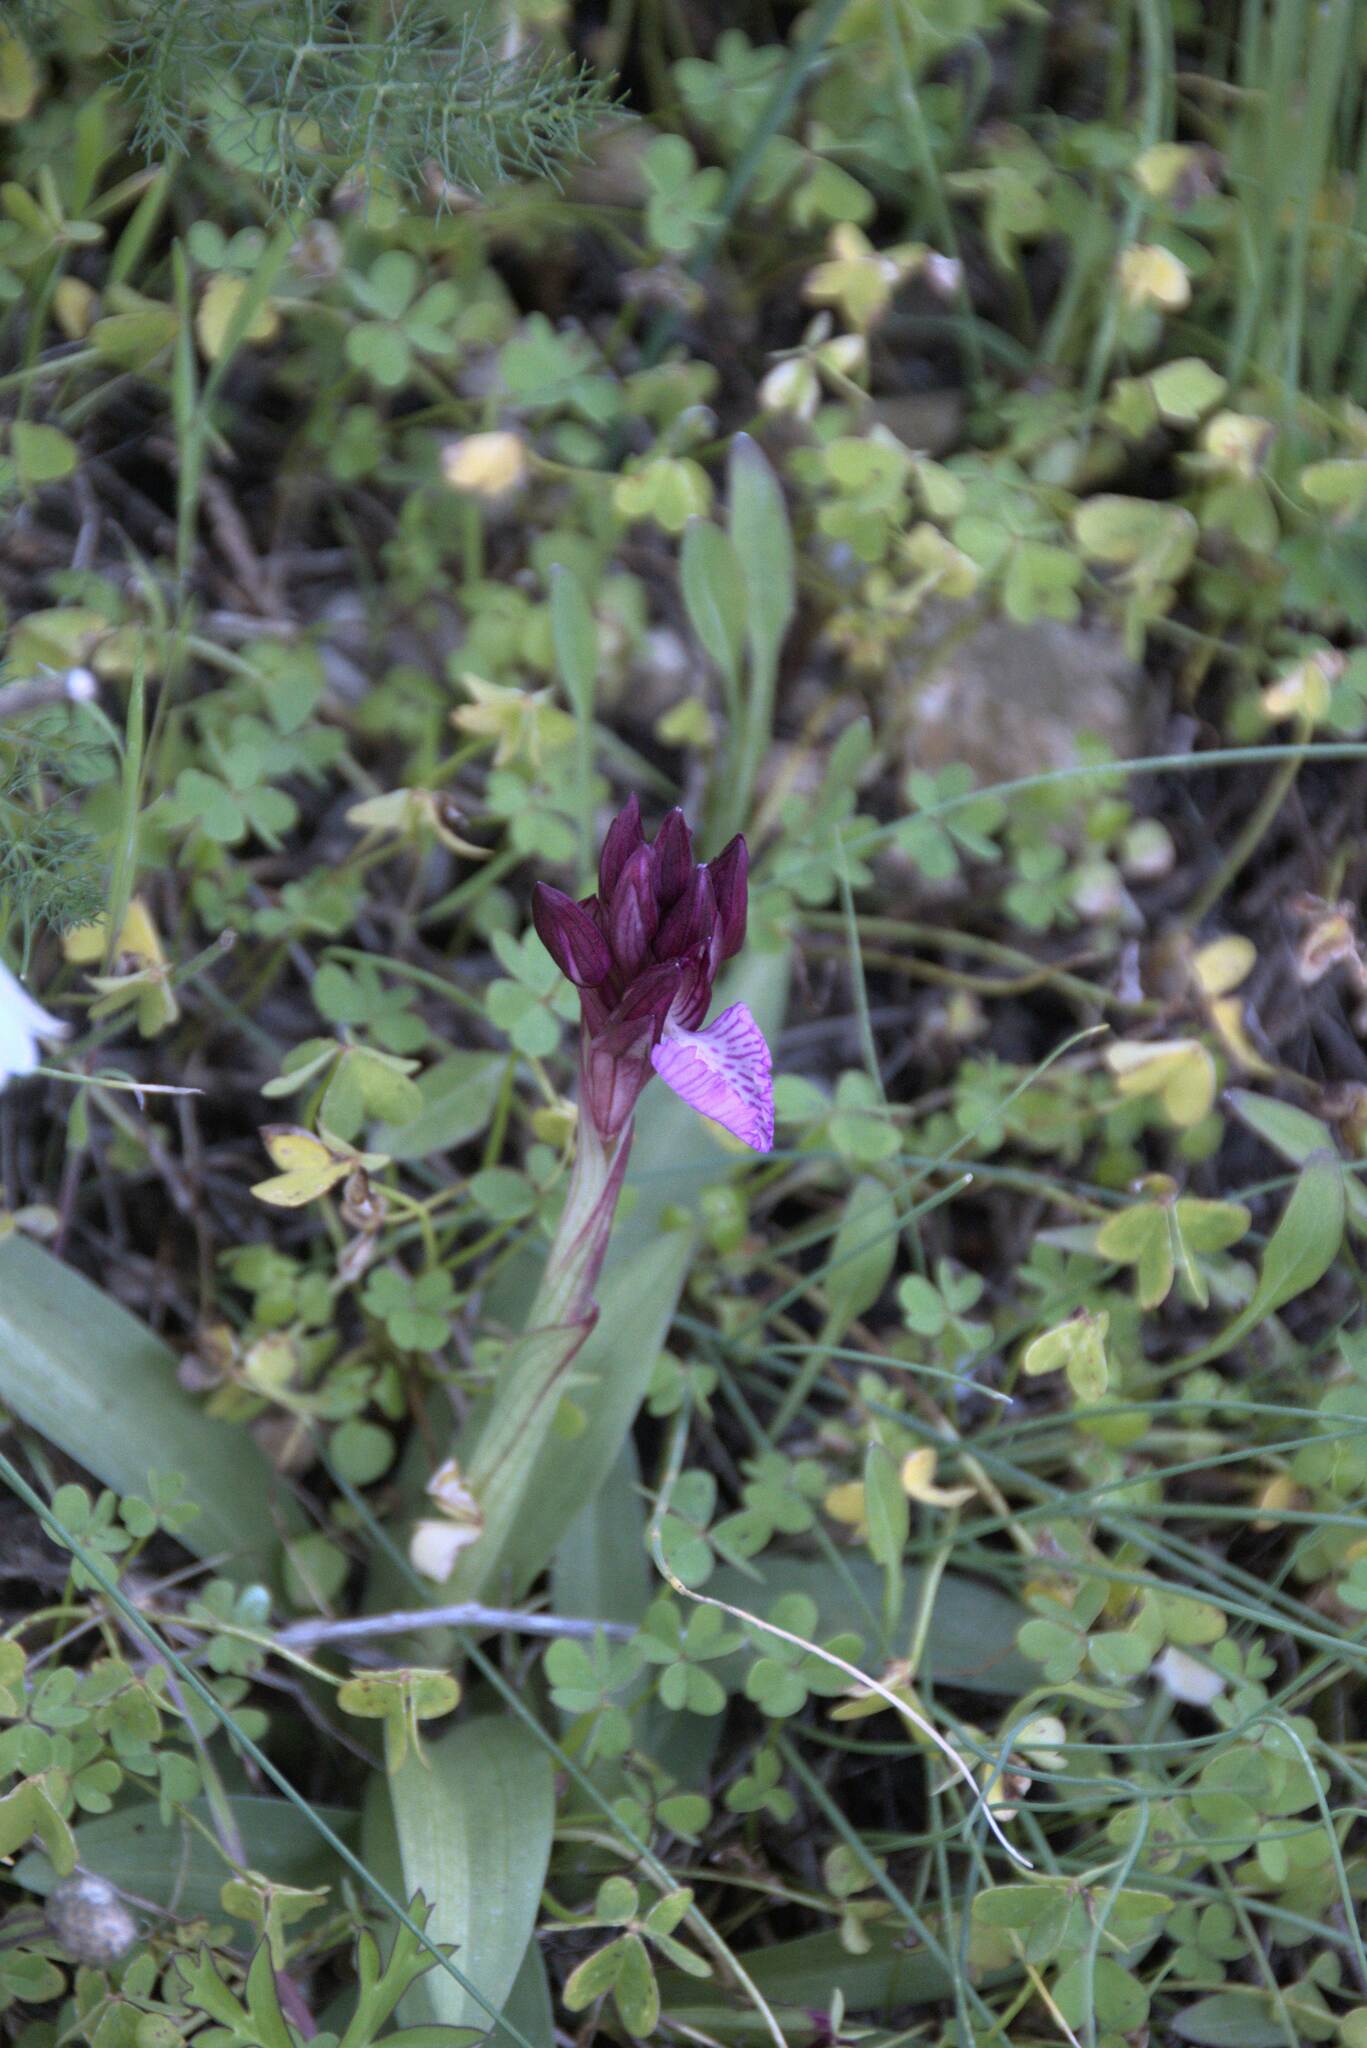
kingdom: Plantae
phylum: Tracheophyta
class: Liliopsida
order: Asparagales
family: Orchidaceae
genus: Anacamptis
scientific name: Anacamptis papilionacea
